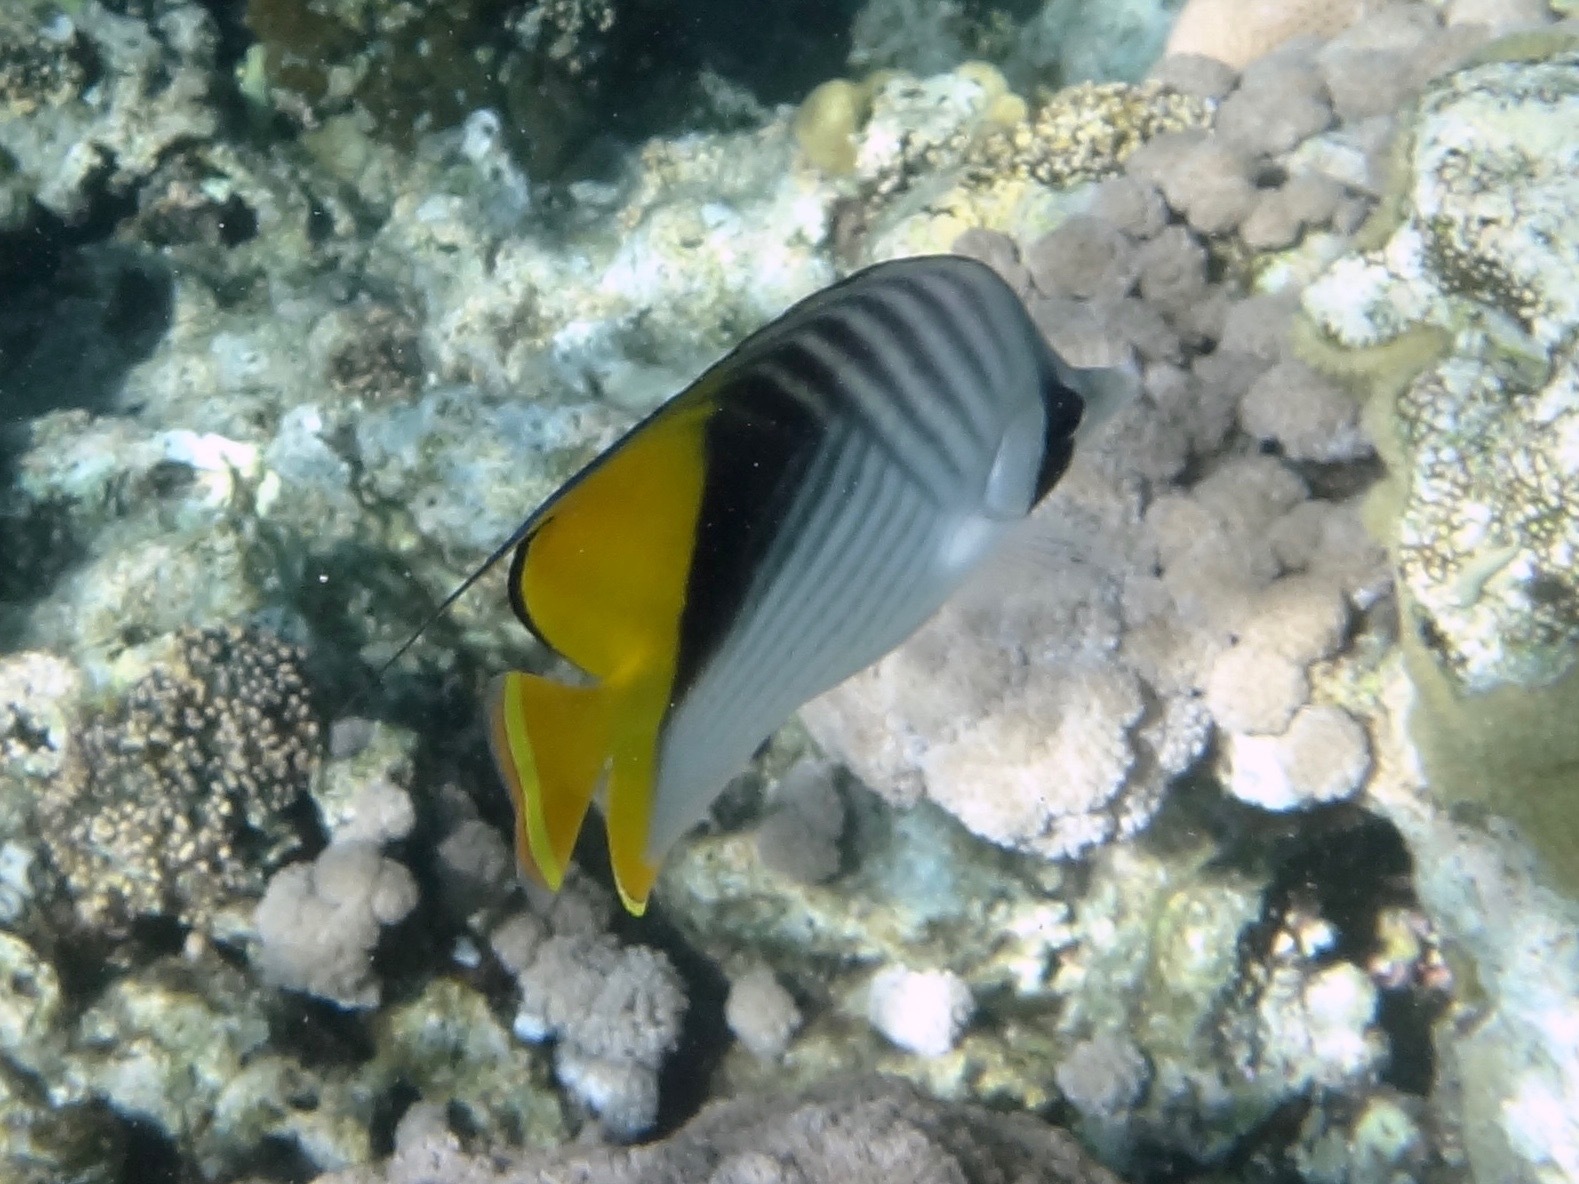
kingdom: Animalia
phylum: Chordata
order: Perciformes
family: Chaetodontidae
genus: Chaetodon
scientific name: Chaetodon auriga
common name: Threadfin butterflyfish
